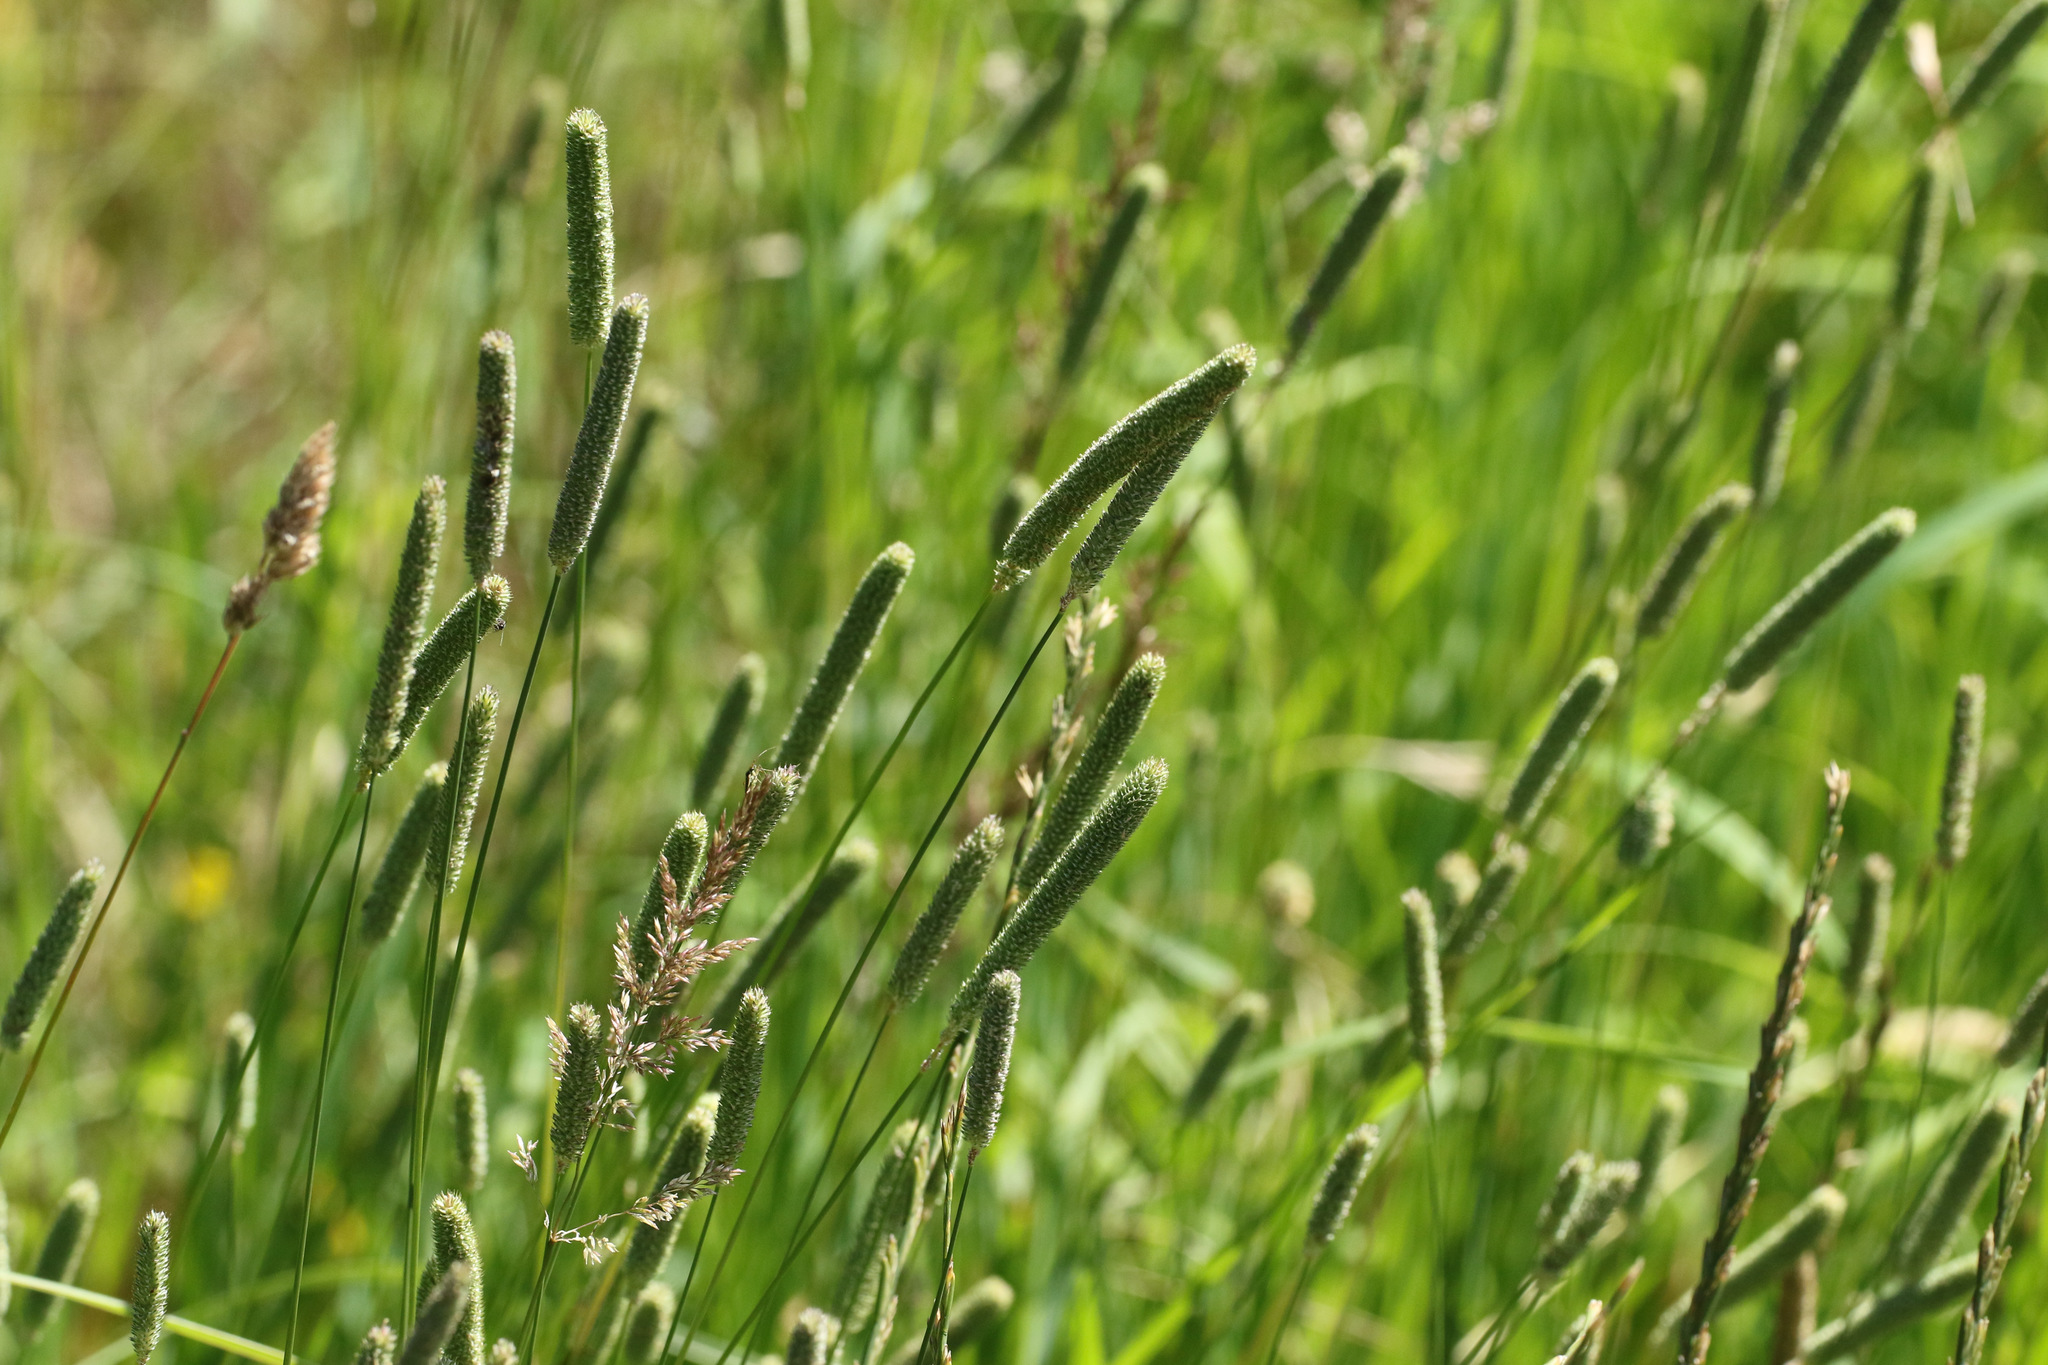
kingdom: Plantae
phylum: Tracheophyta
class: Liliopsida
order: Poales
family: Poaceae
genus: Phleum
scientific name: Phleum pratense
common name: Timothy grass
